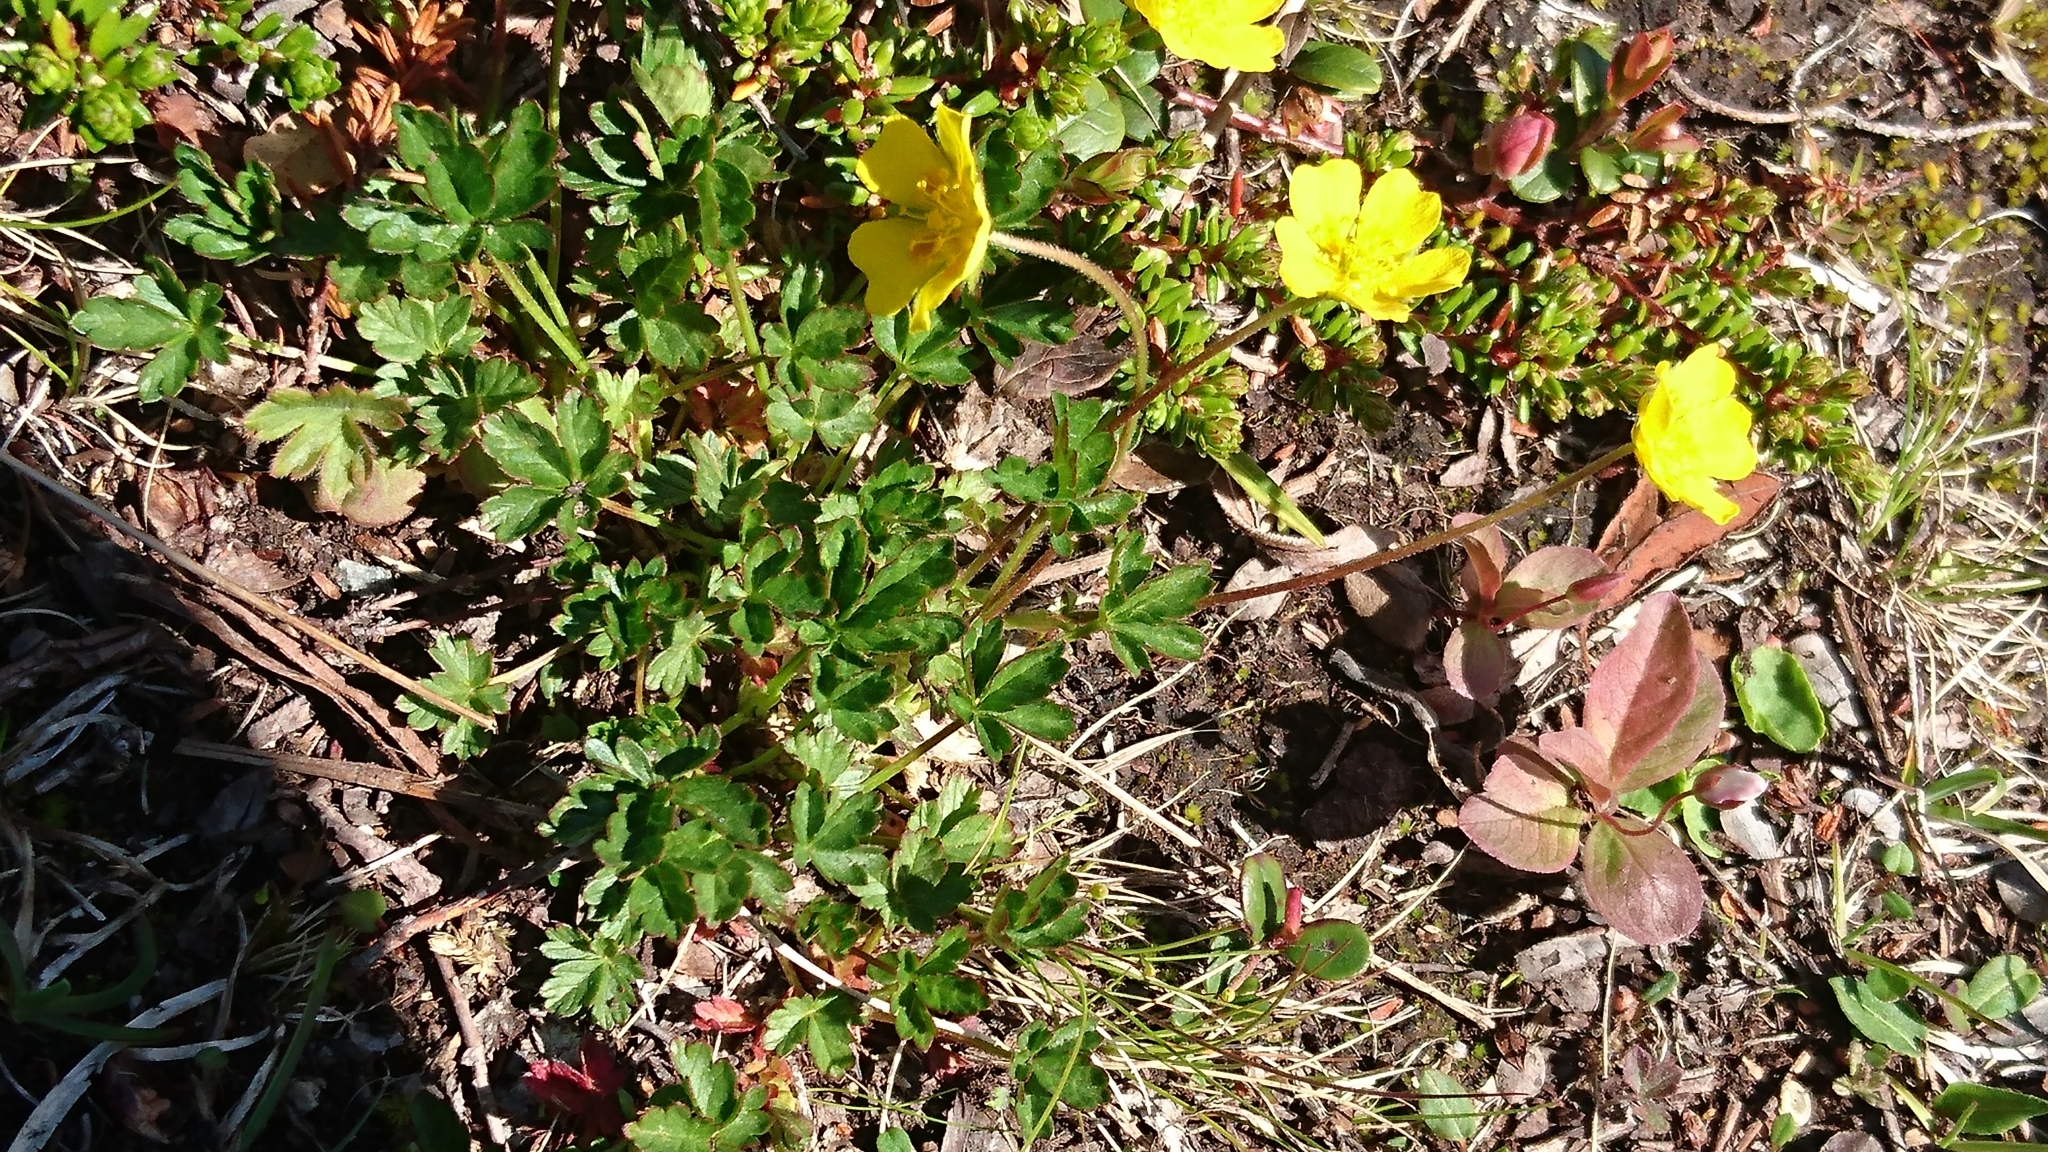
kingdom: Plantae
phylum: Tracheophyta
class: Magnoliopsida
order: Rosales
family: Rosaceae
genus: Potentilla
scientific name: Potentilla crantzii
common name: Alpine cinquefoil
